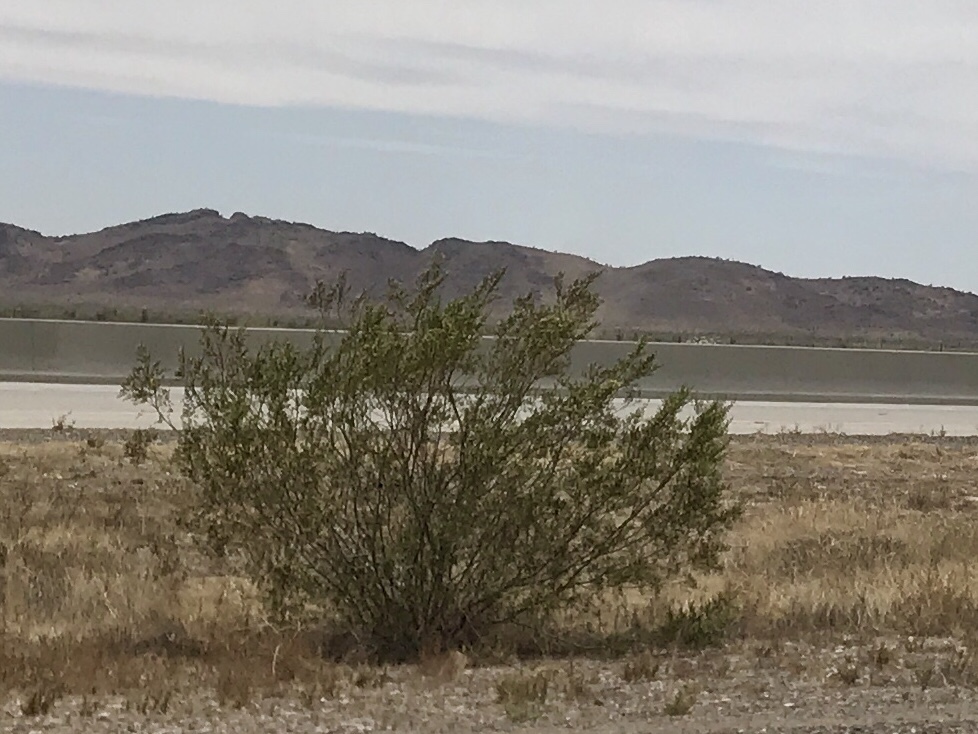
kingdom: Plantae
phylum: Tracheophyta
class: Magnoliopsida
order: Zygophyllales
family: Zygophyllaceae
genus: Larrea
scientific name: Larrea tridentata
